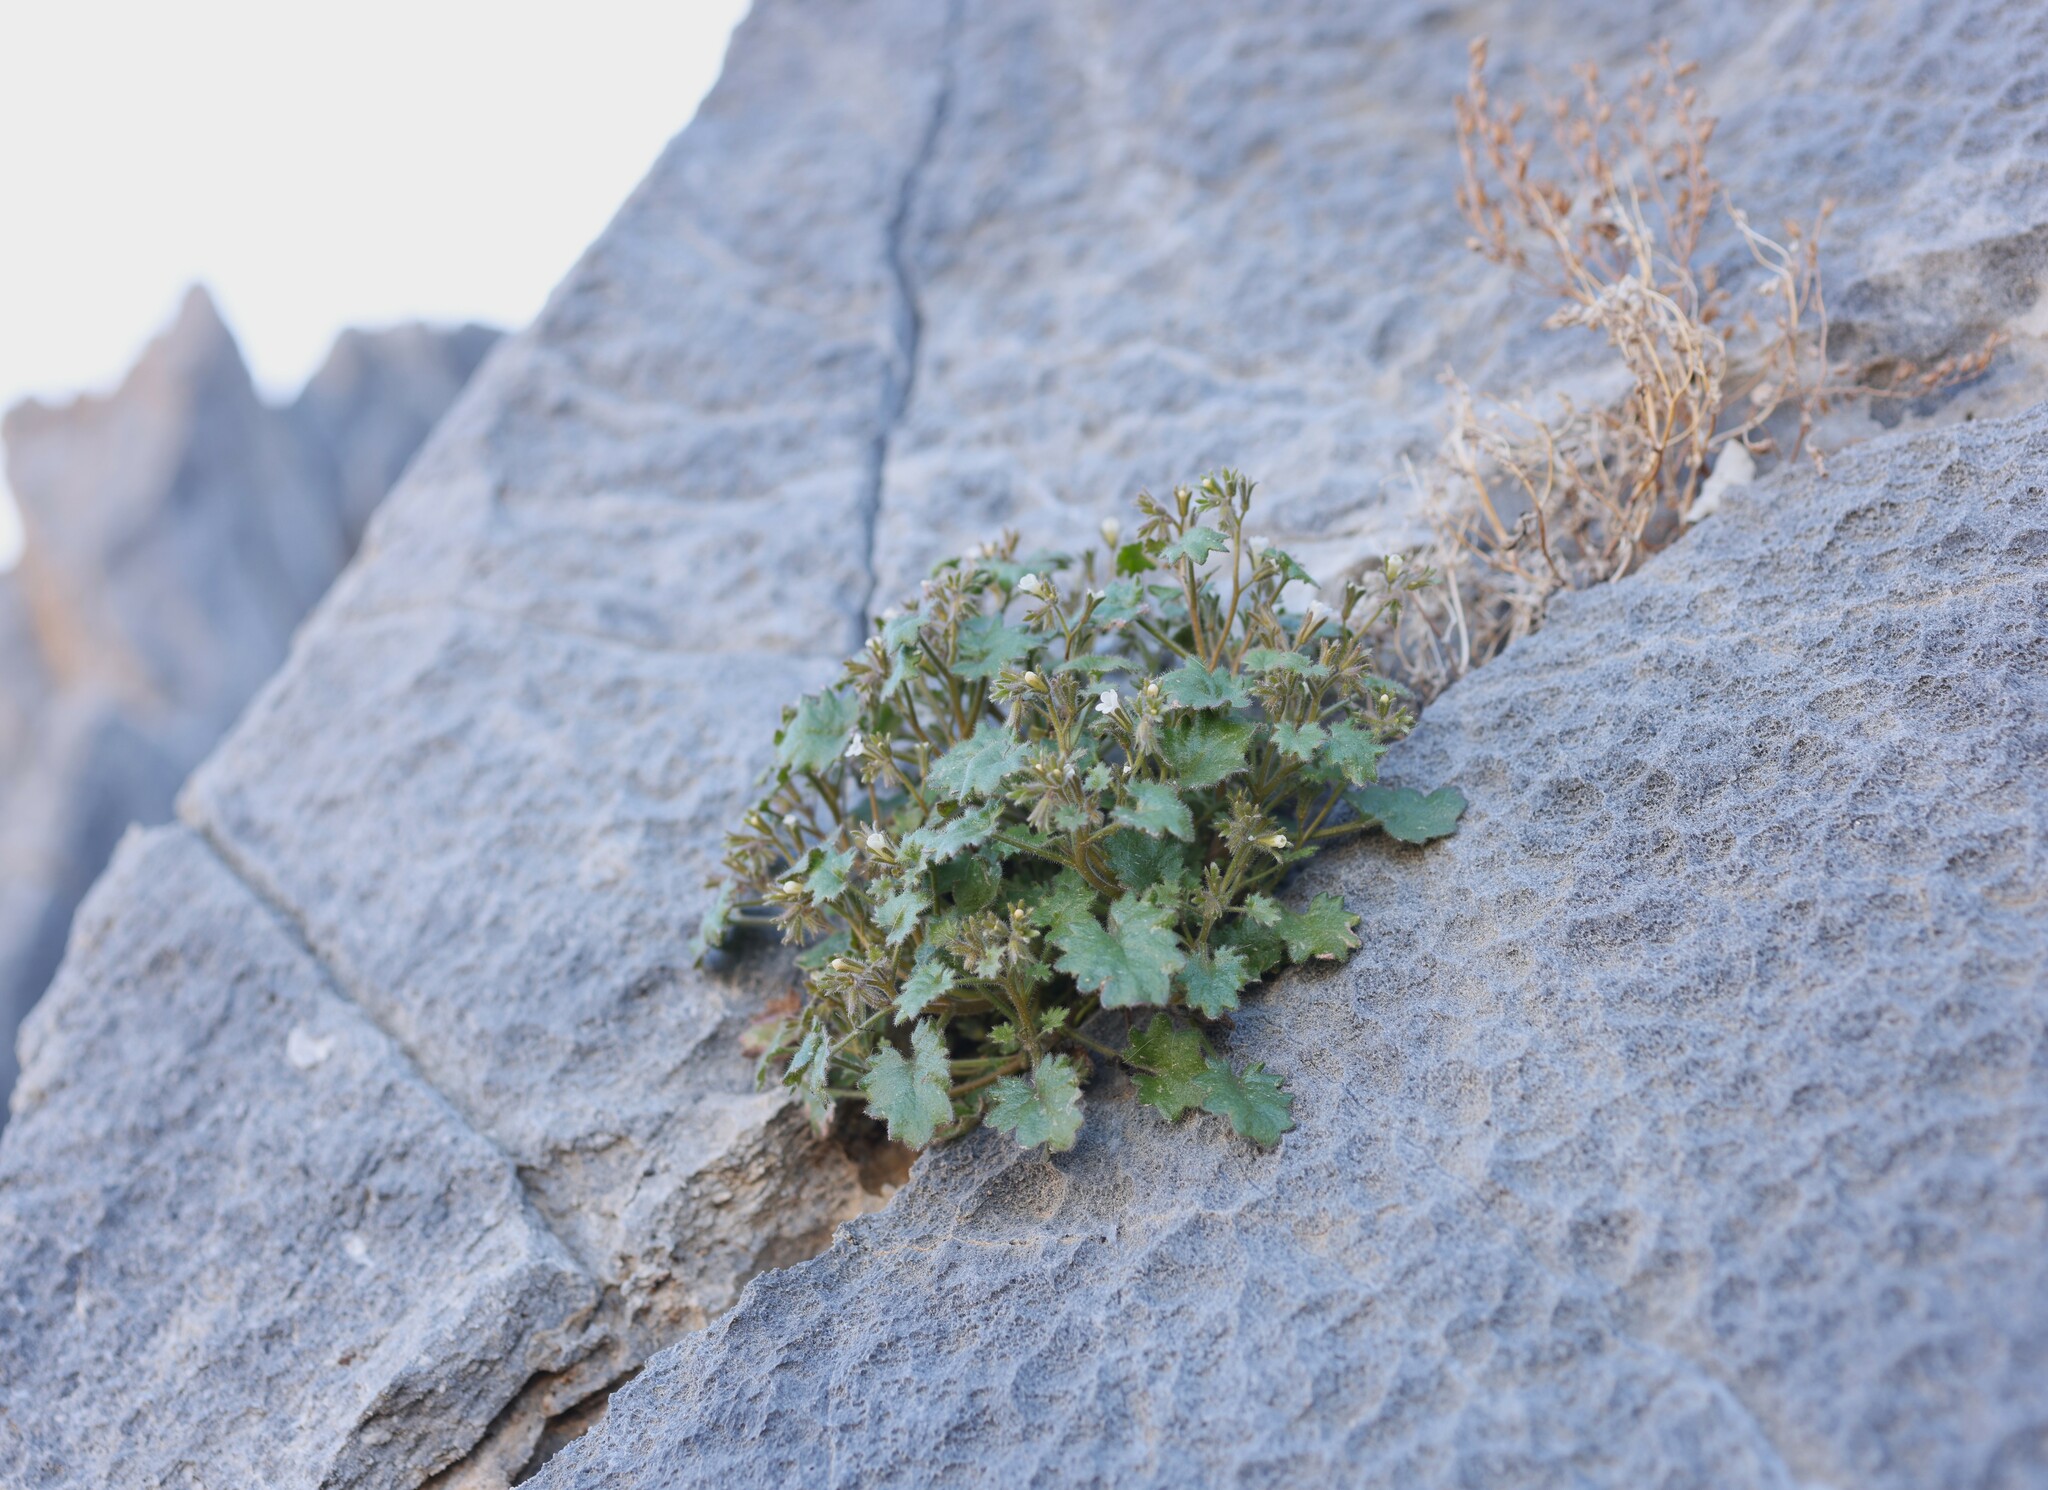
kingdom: Plantae
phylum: Tracheophyta
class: Magnoliopsida
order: Boraginales
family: Hydrophyllaceae
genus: Phacelia
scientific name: Phacelia rotundifolia
